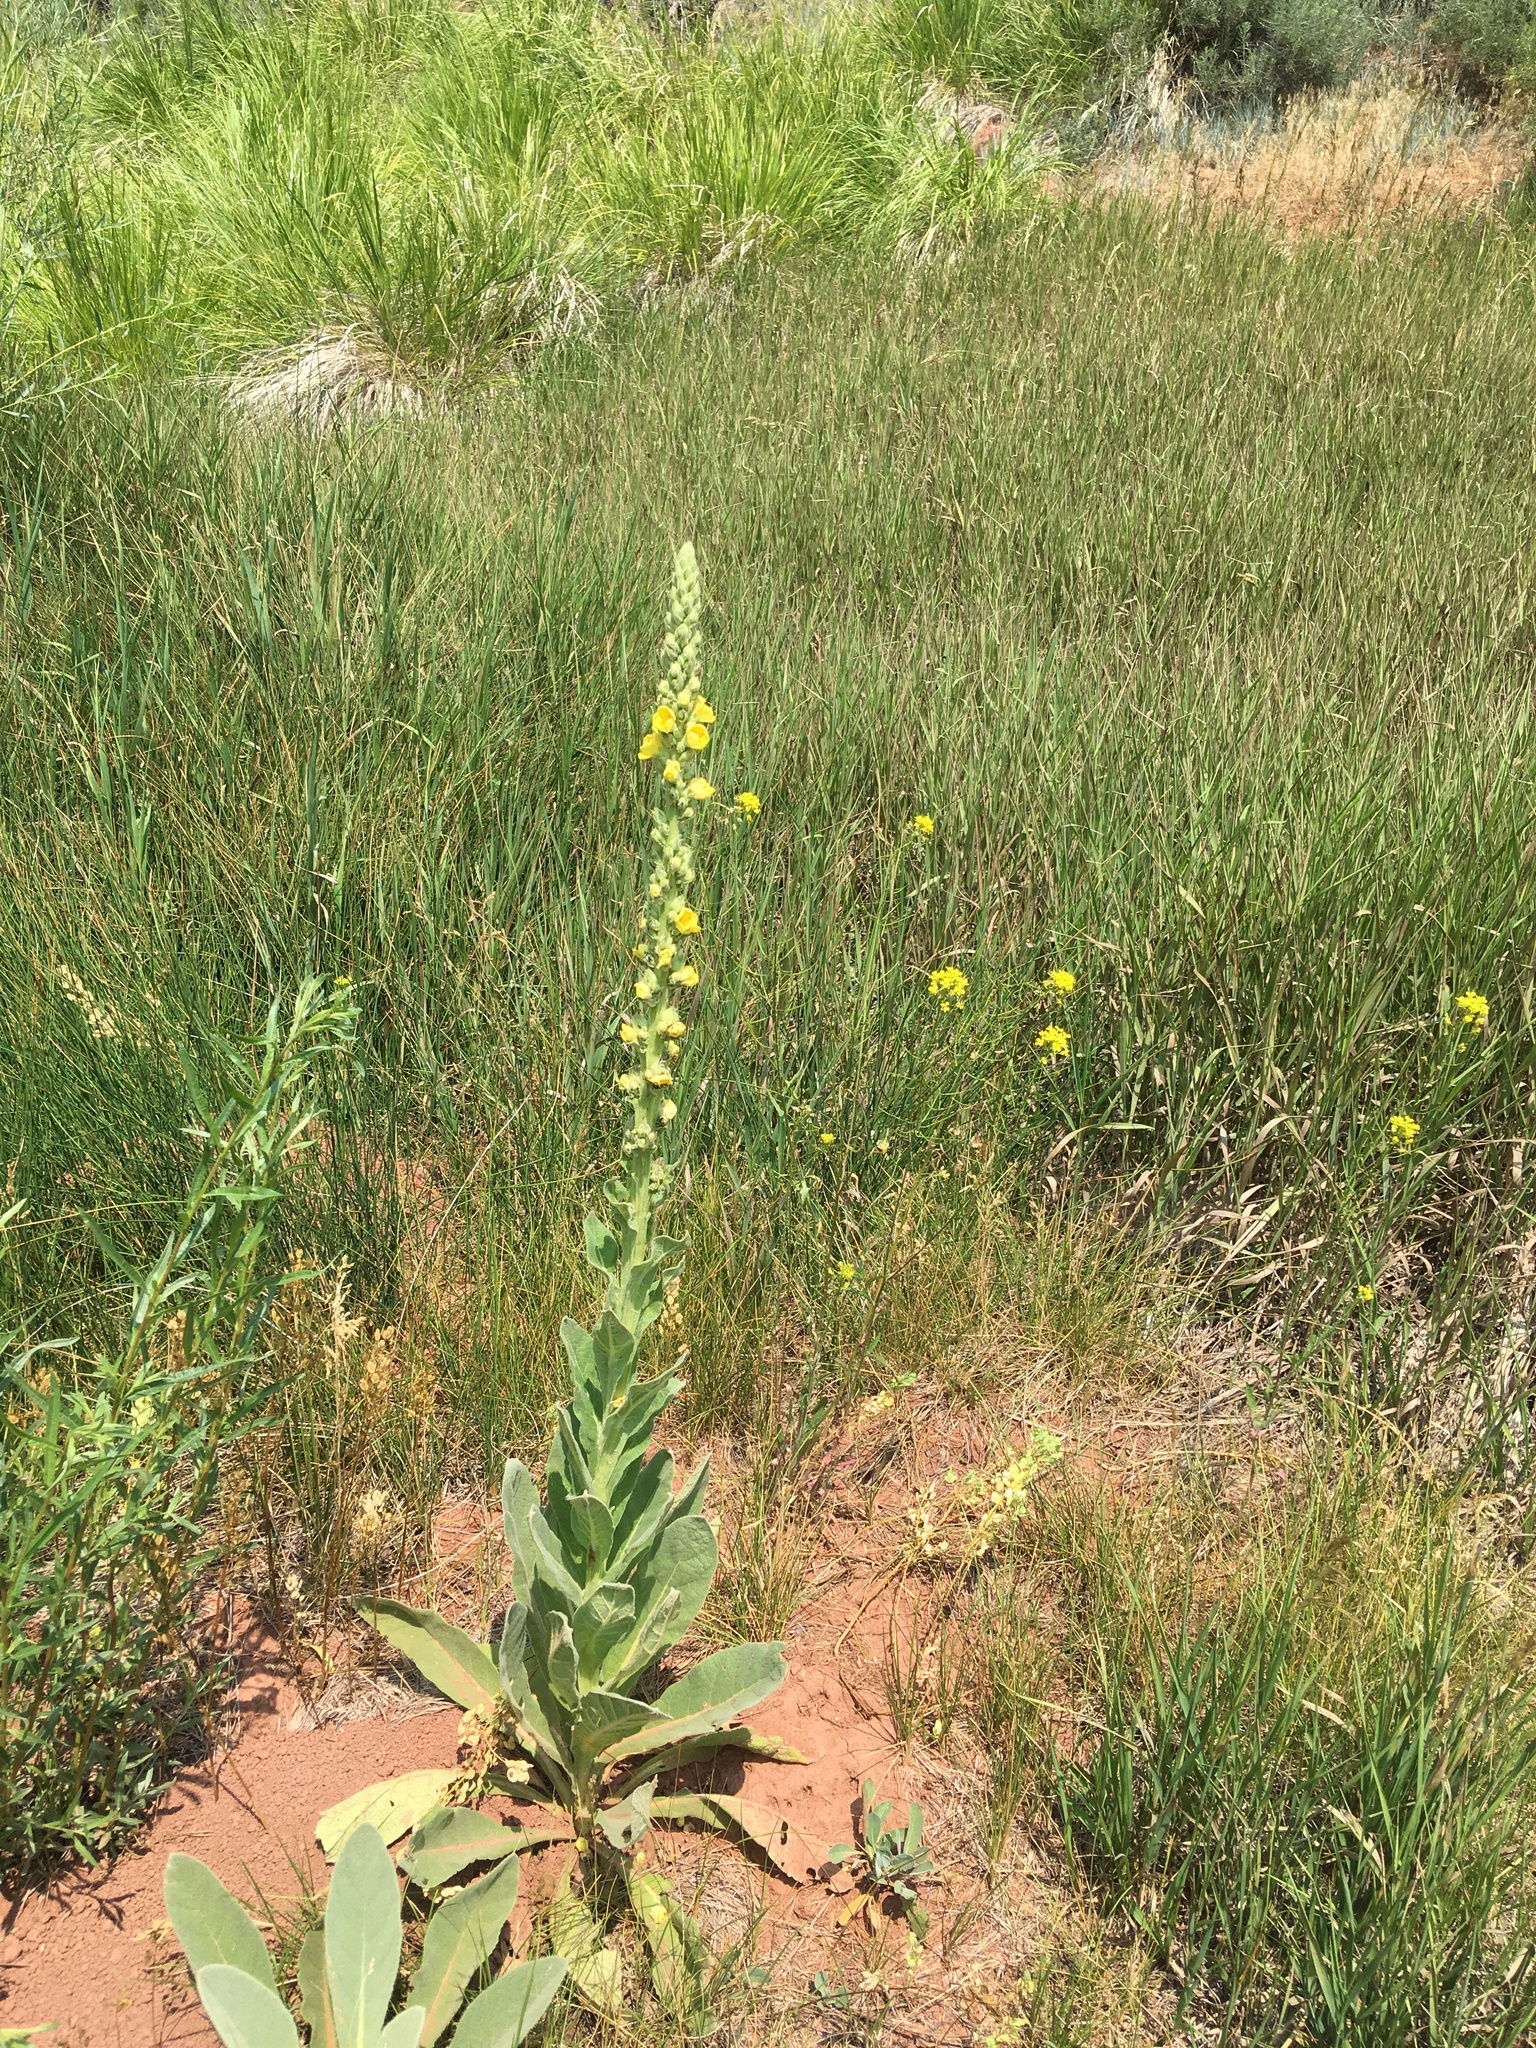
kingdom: Plantae
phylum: Tracheophyta
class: Magnoliopsida
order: Lamiales
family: Scrophulariaceae
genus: Verbascum
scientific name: Verbascum thapsus
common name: Common mullein
